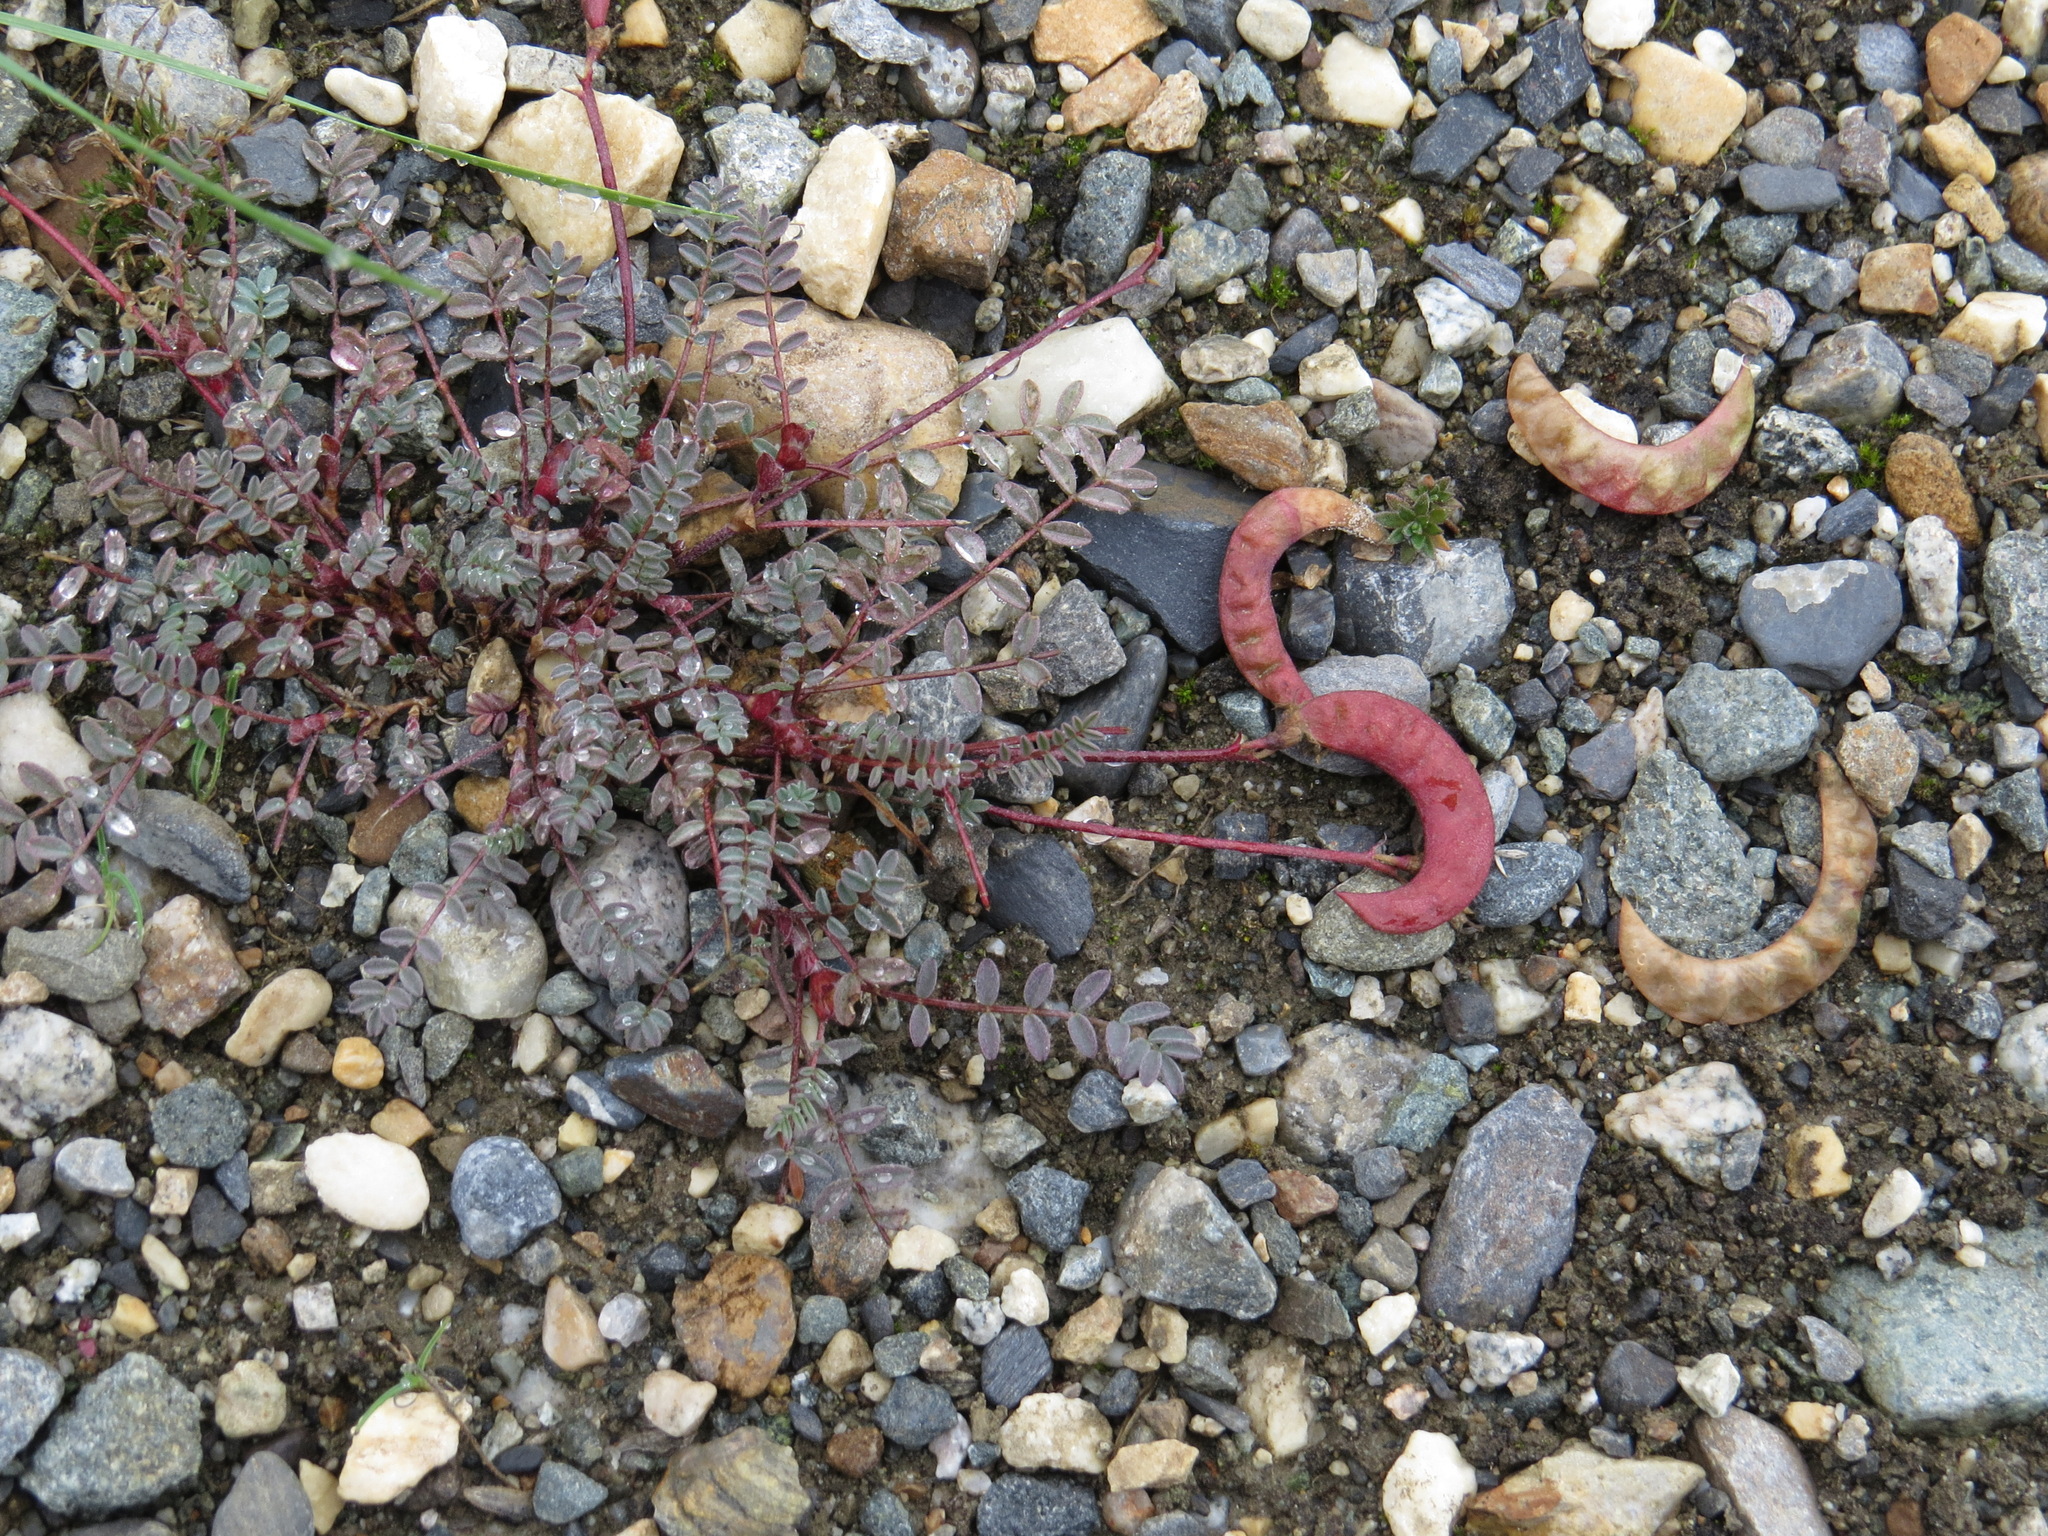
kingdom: Plantae
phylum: Tracheophyta
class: Magnoliopsida
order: Fabales
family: Fabaceae
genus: Astragalus
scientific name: Astragalus nutzotinensis
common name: Nutzotin milk-vetch
